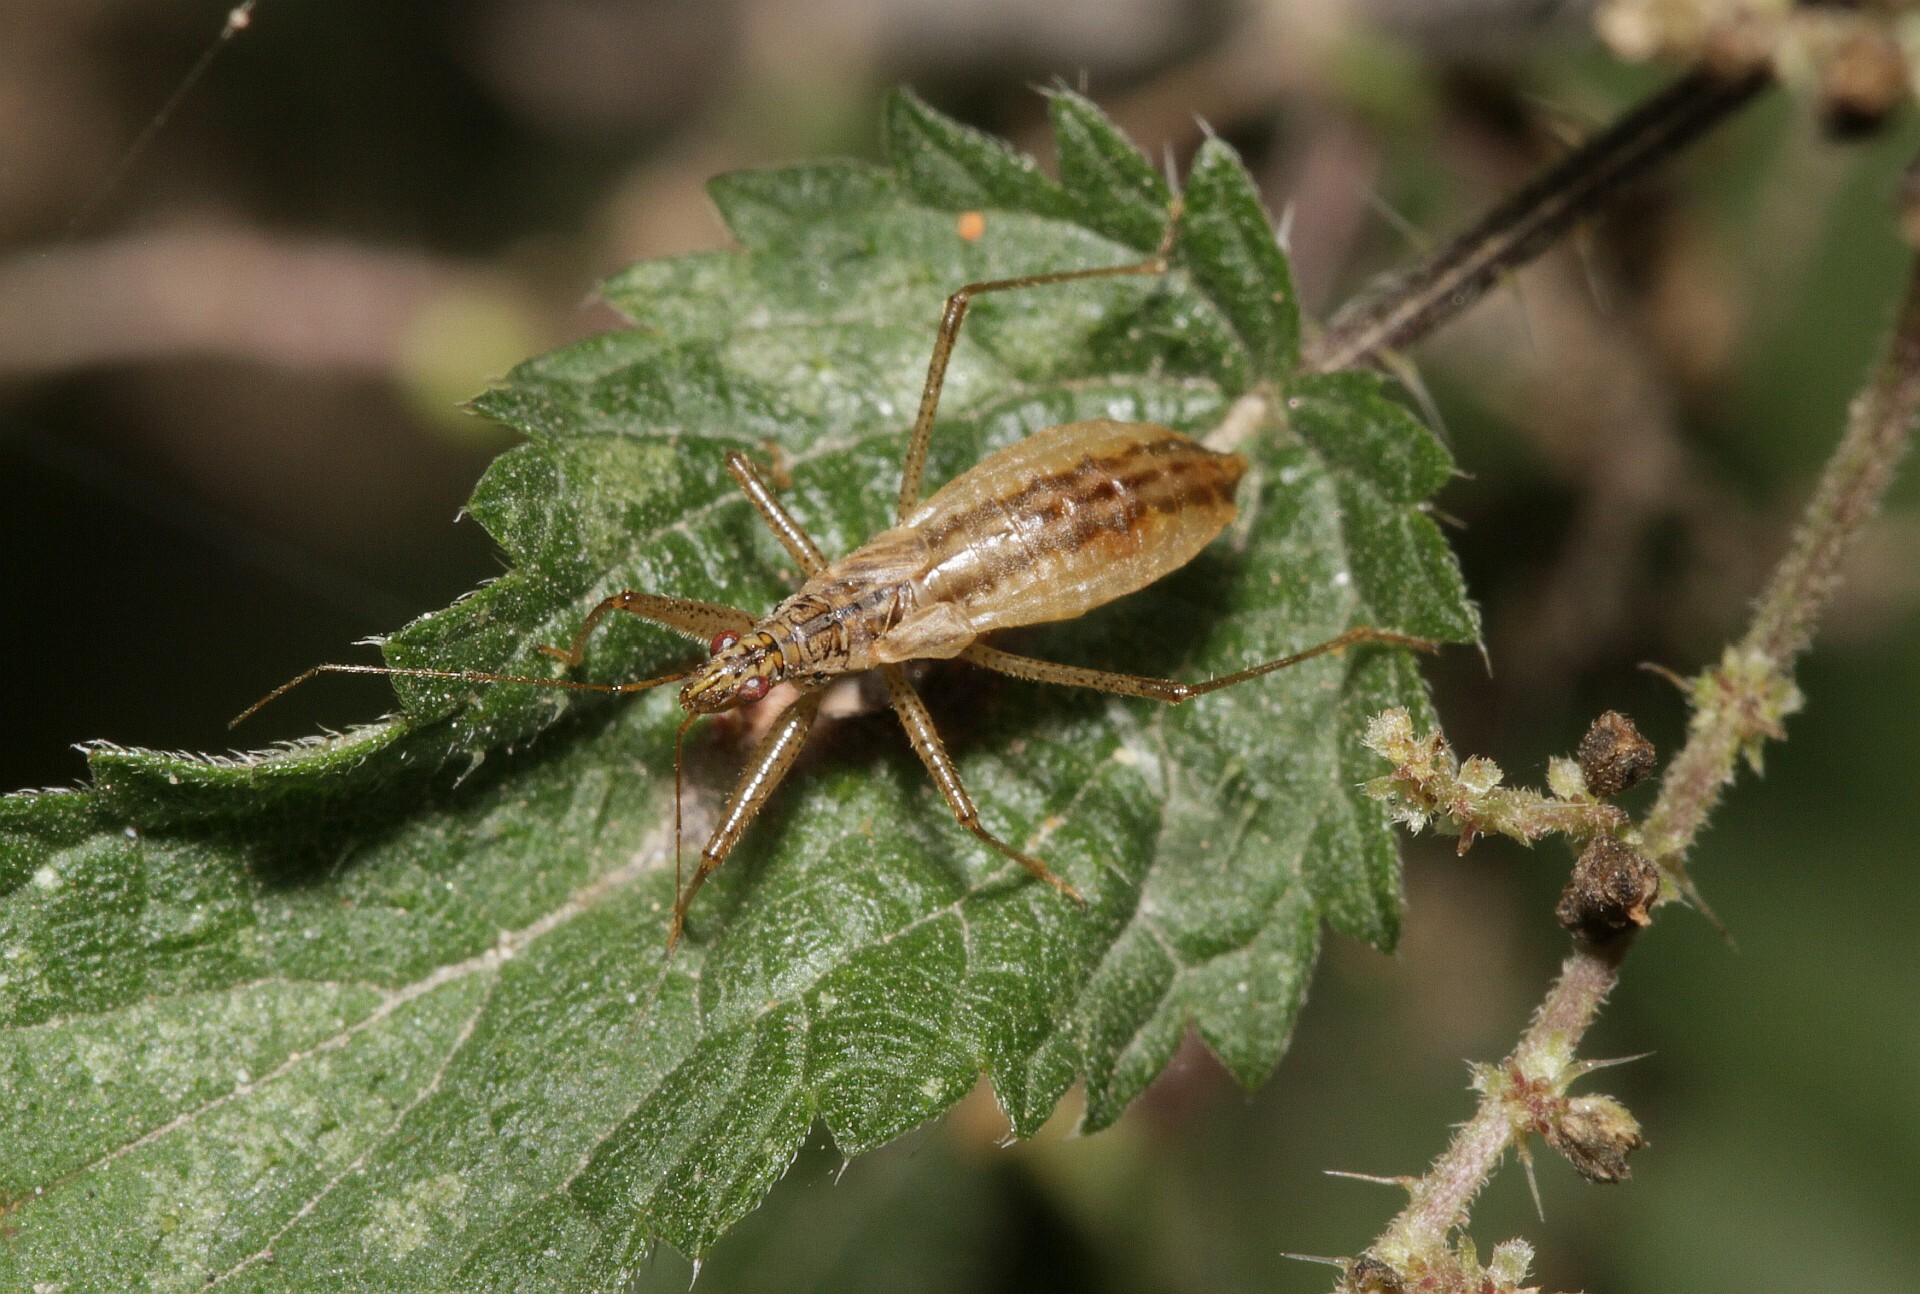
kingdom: Animalia
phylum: Arthropoda
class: Insecta
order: Hemiptera
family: Nabidae
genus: Nabis
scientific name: Nabis limbatus
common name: Marsh damselbug
